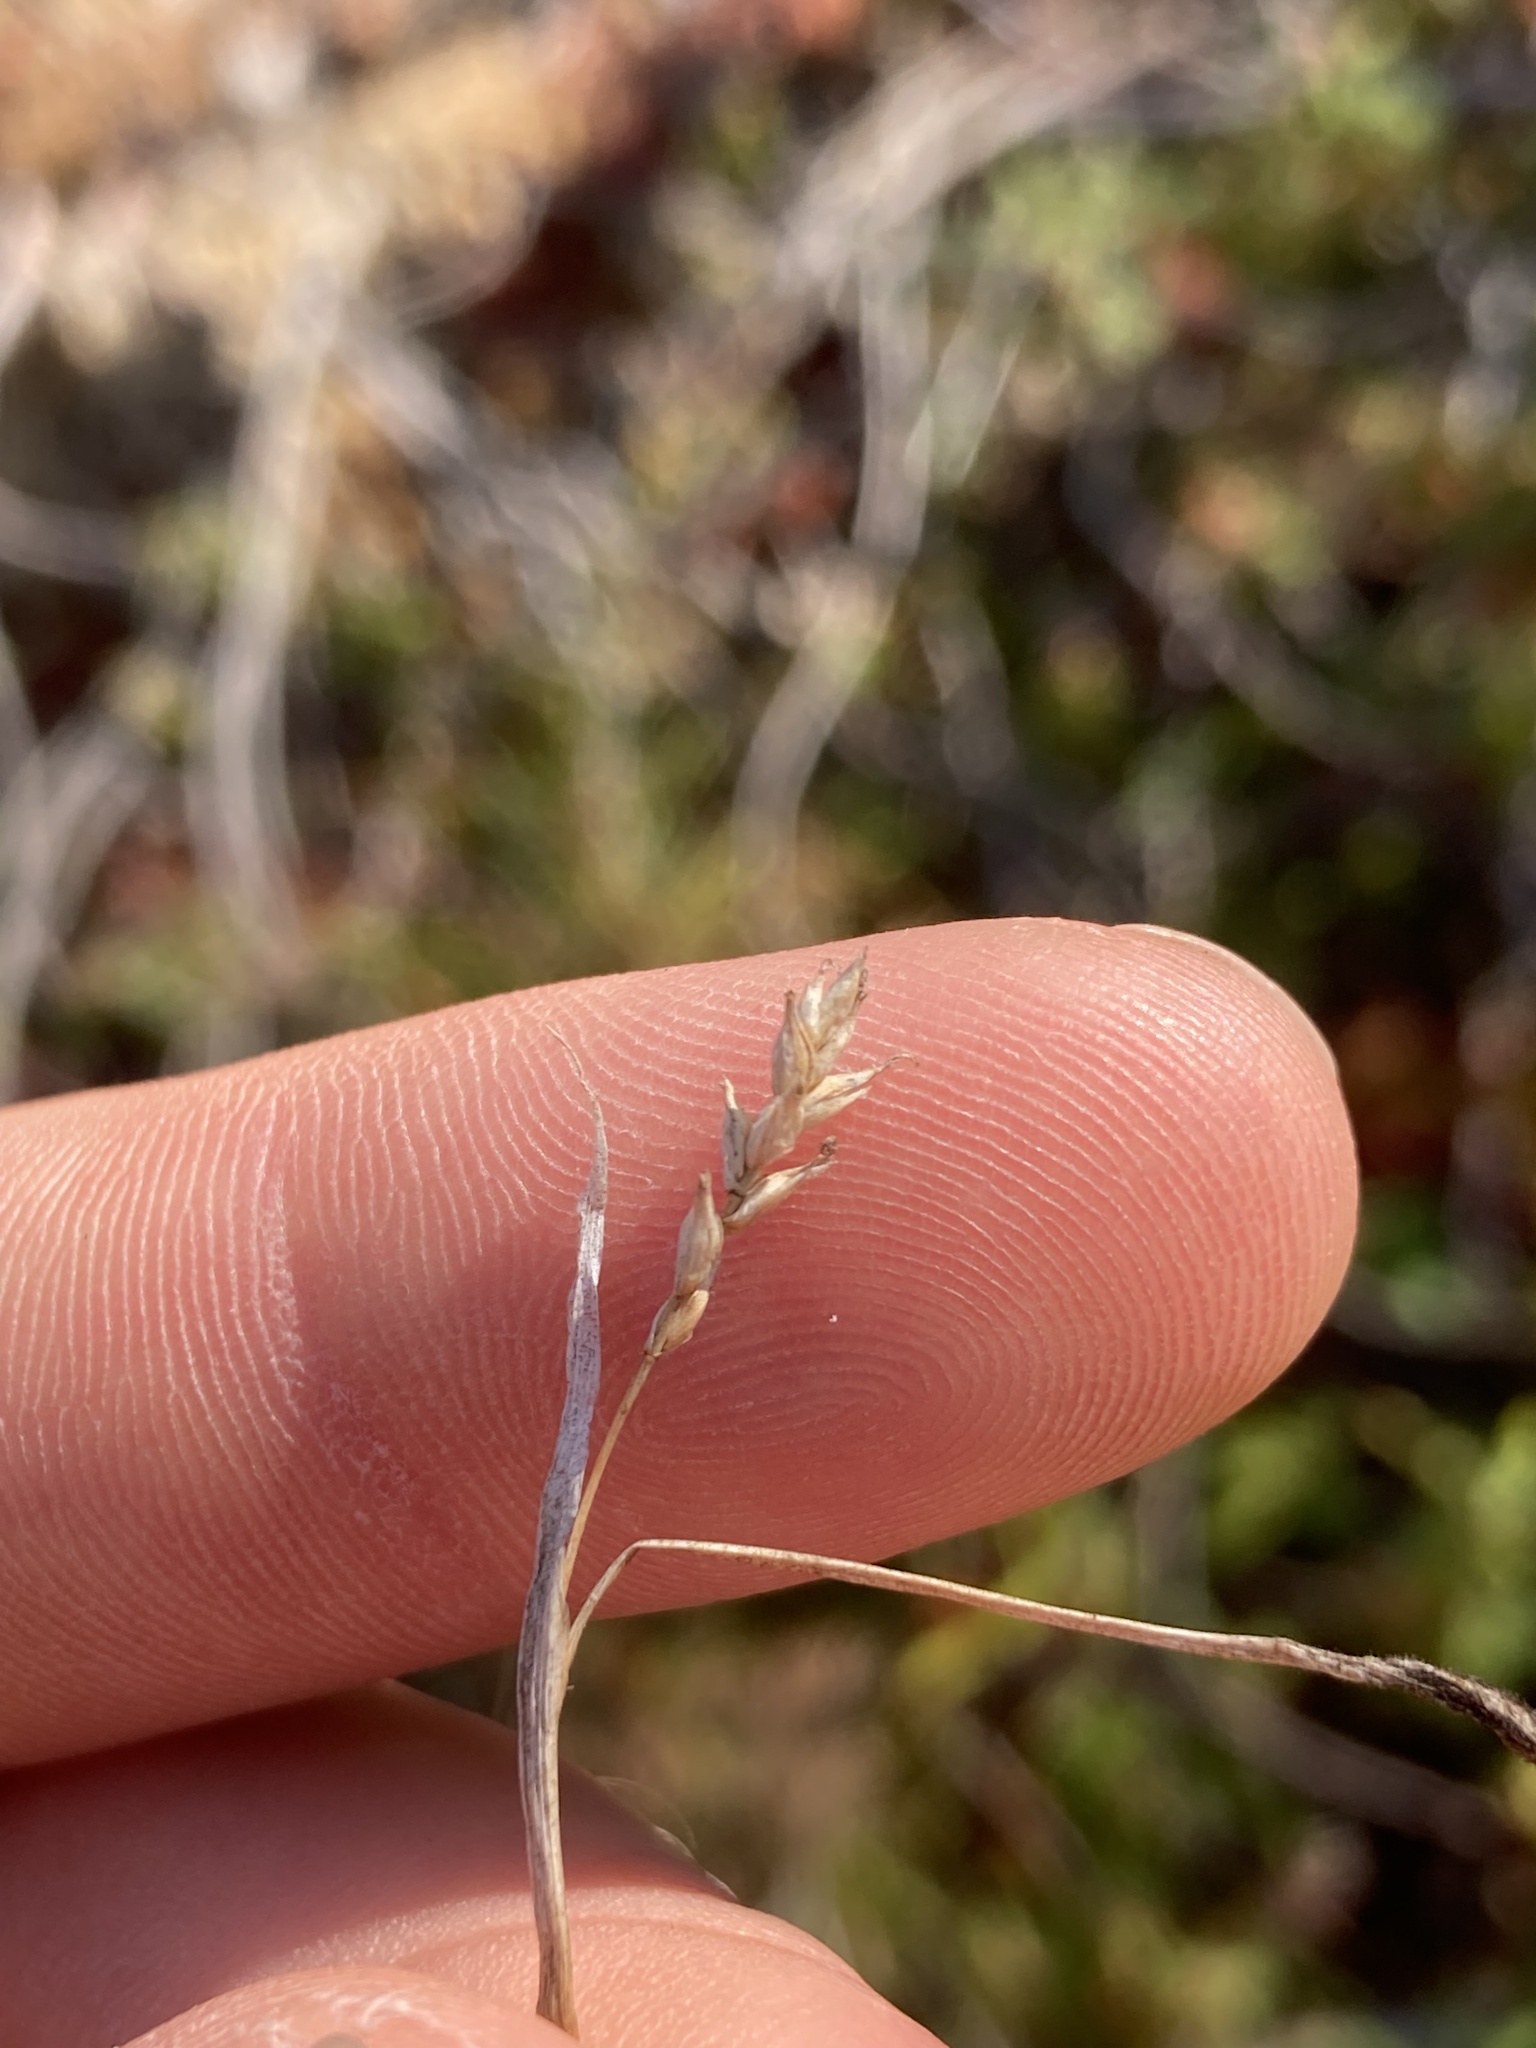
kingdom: Plantae
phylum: Tracheophyta
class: Liliopsida
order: Poales
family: Cyperaceae
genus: Carex
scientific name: Carex vaginata
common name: Sheathed sedge
